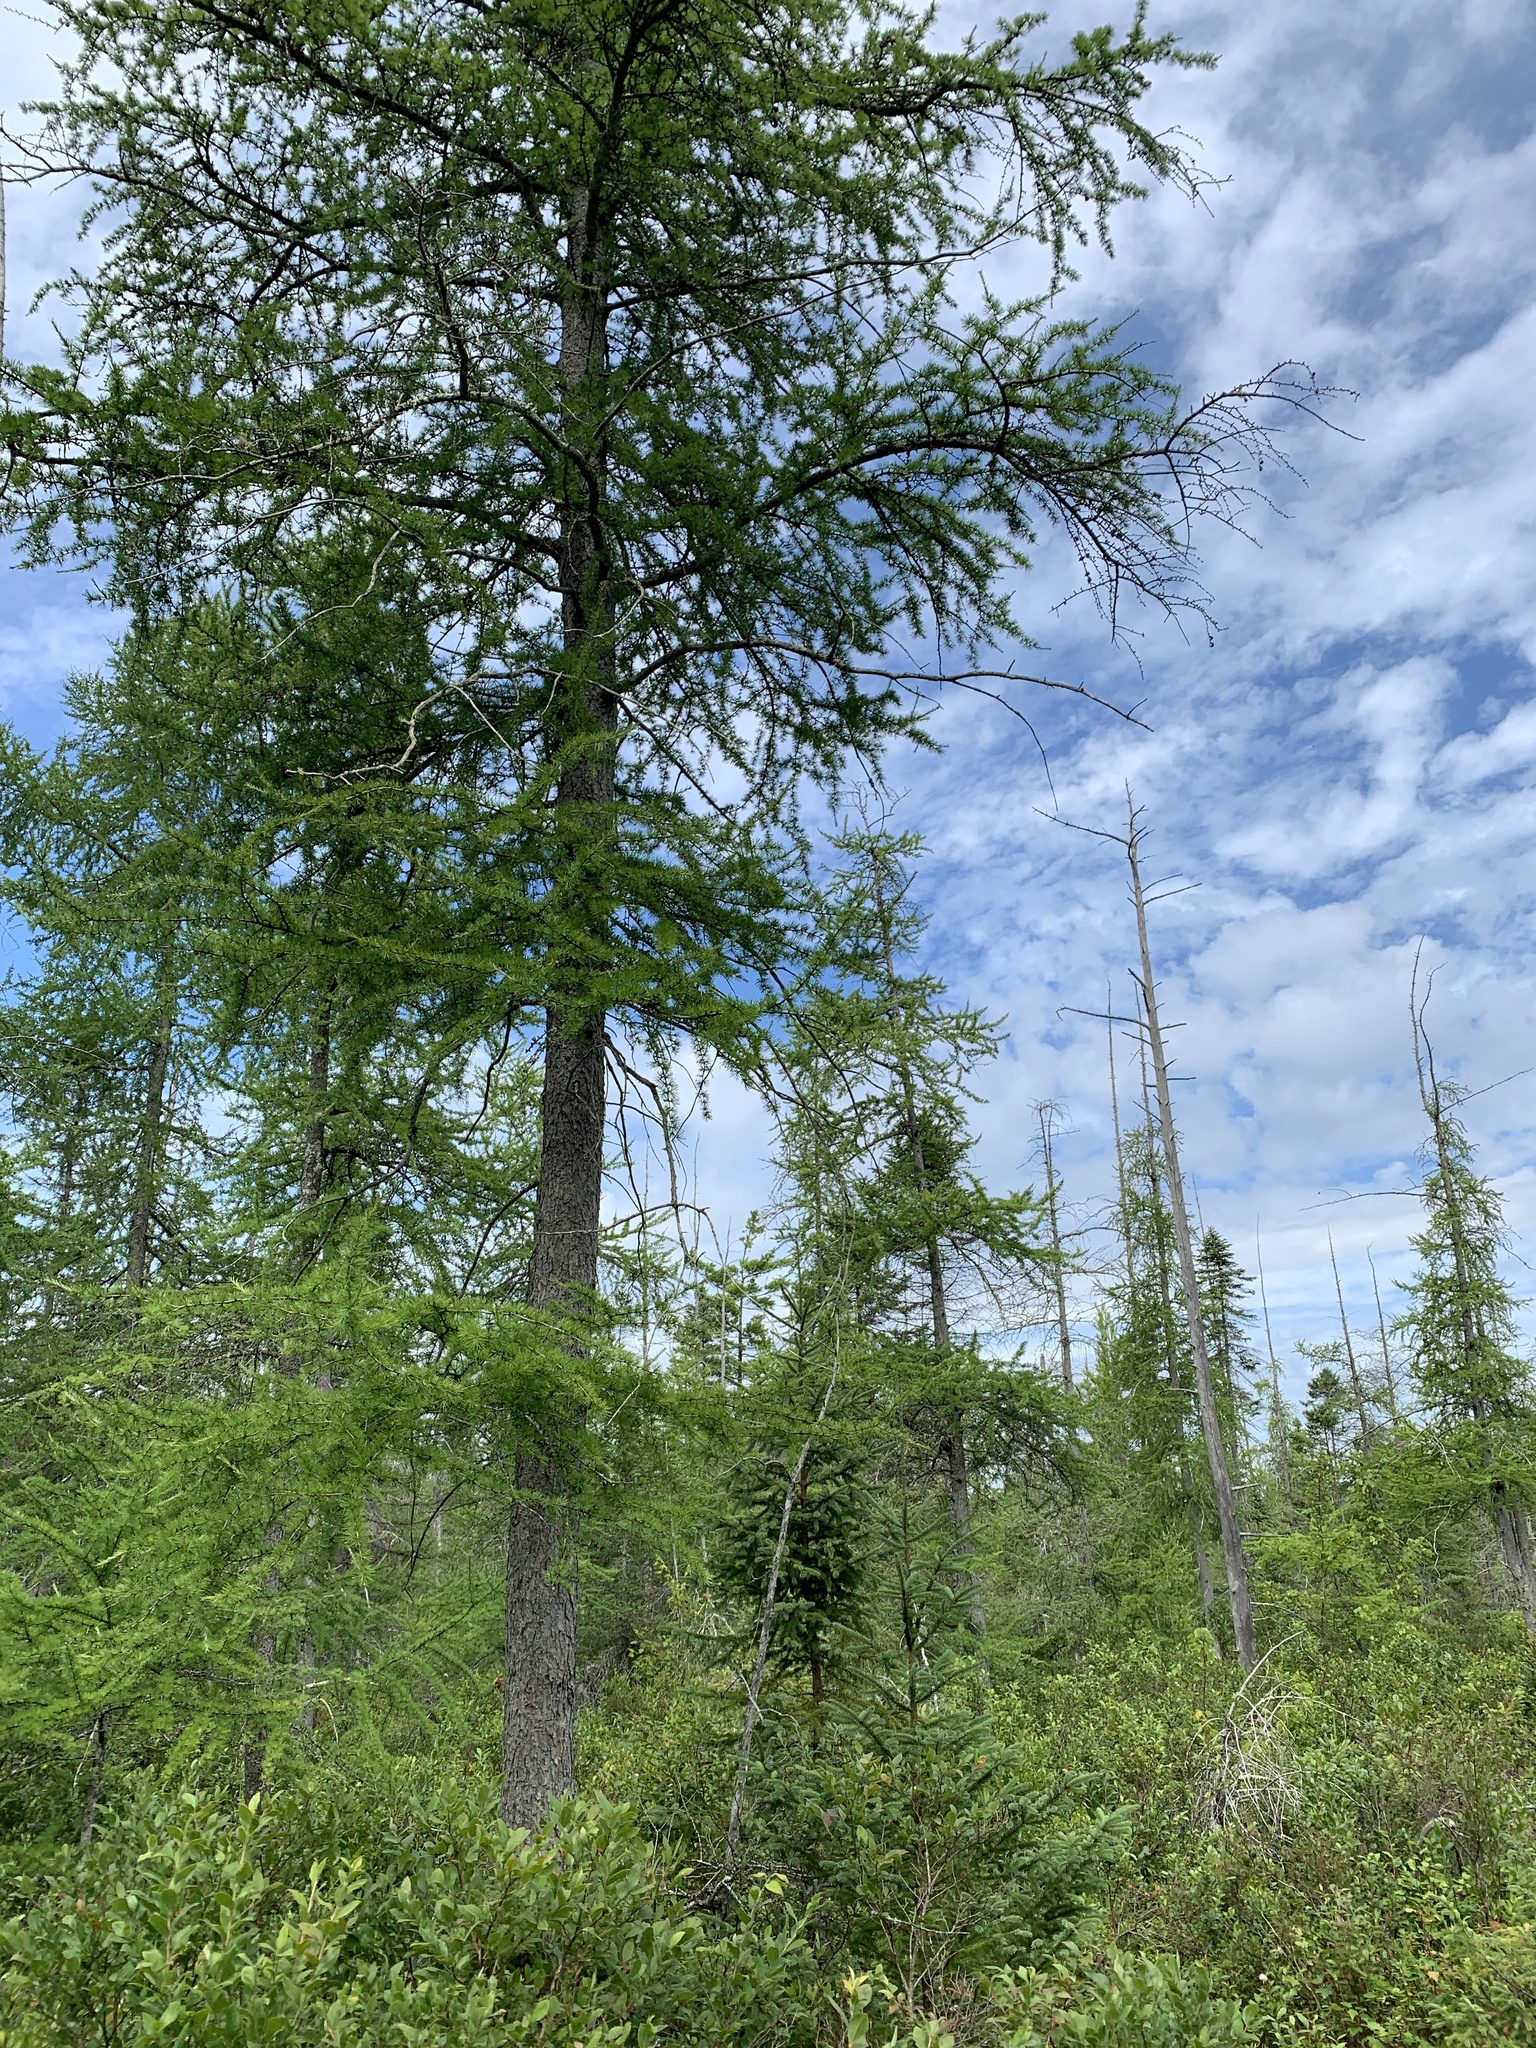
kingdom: Plantae
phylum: Tracheophyta
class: Pinopsida
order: Pinales
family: Pinaceae
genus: Larix
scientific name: Larix laricina
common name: American larch
